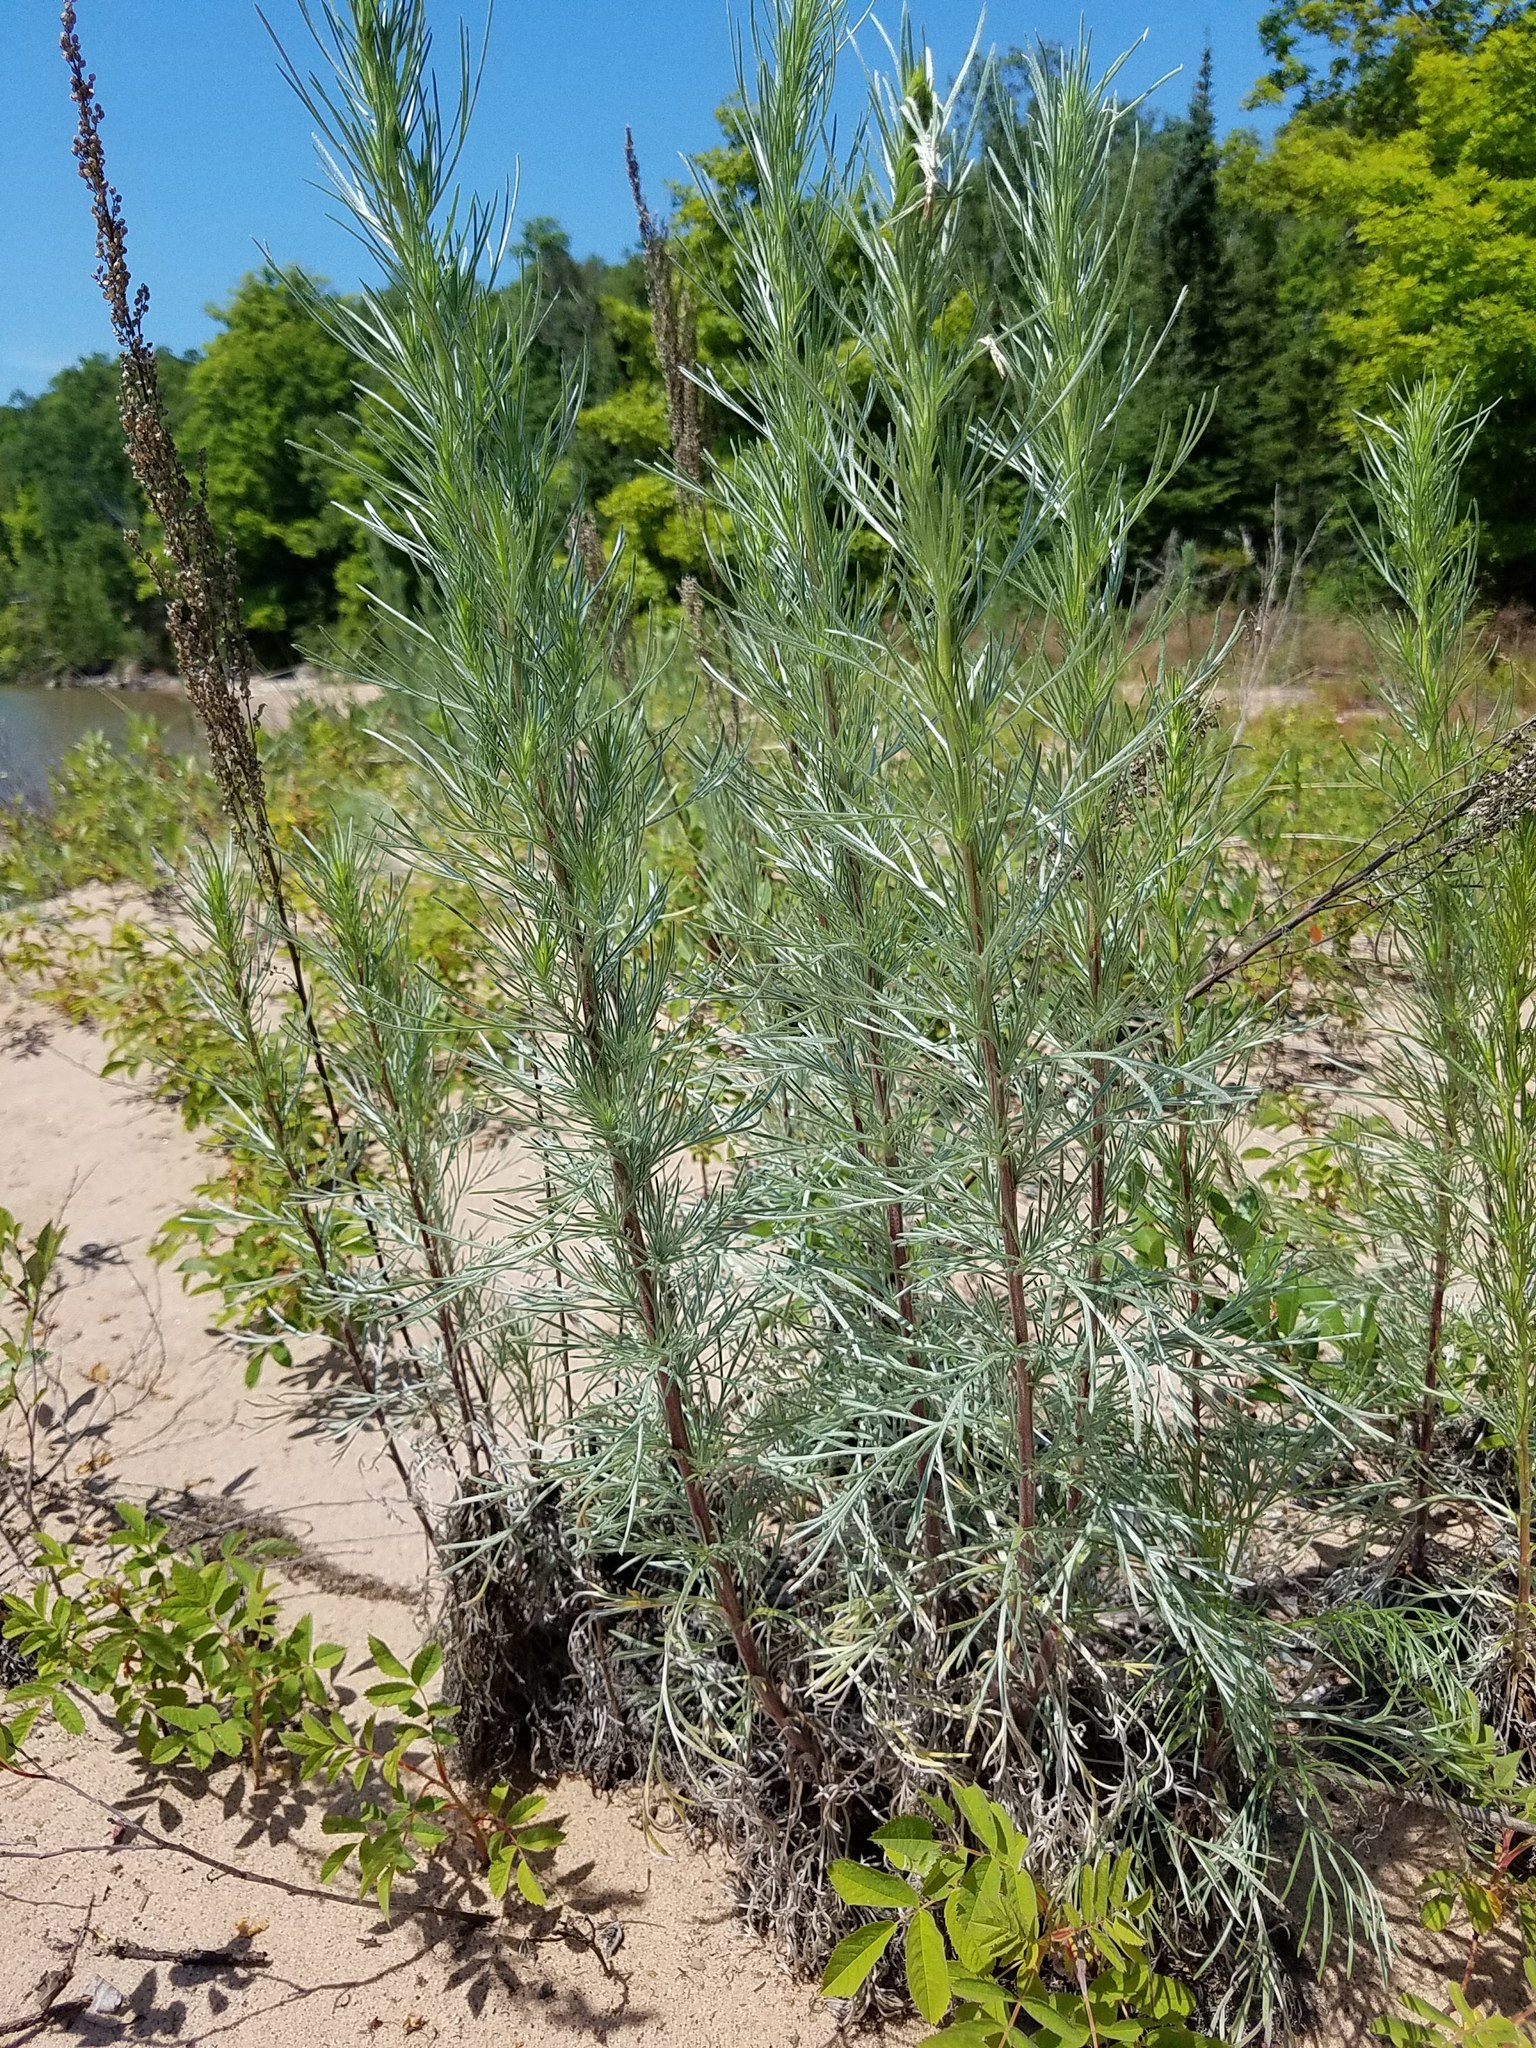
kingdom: Plantae
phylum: Tracheophyta
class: Magnoliopsida
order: Asterales
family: Asteraceae
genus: Artemisia
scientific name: Artemisia campestris
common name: Field wormwood
